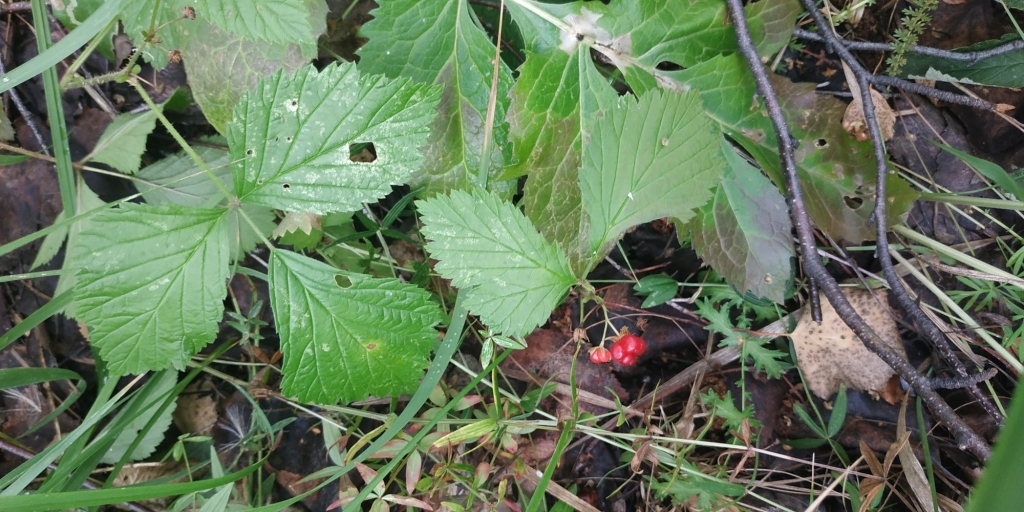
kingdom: Plantae
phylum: Tracheophyta
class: Magnoliopsida
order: Rosales
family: Rosaceae
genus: Rubus
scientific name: Rubus saxatilis
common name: Stone bramble
